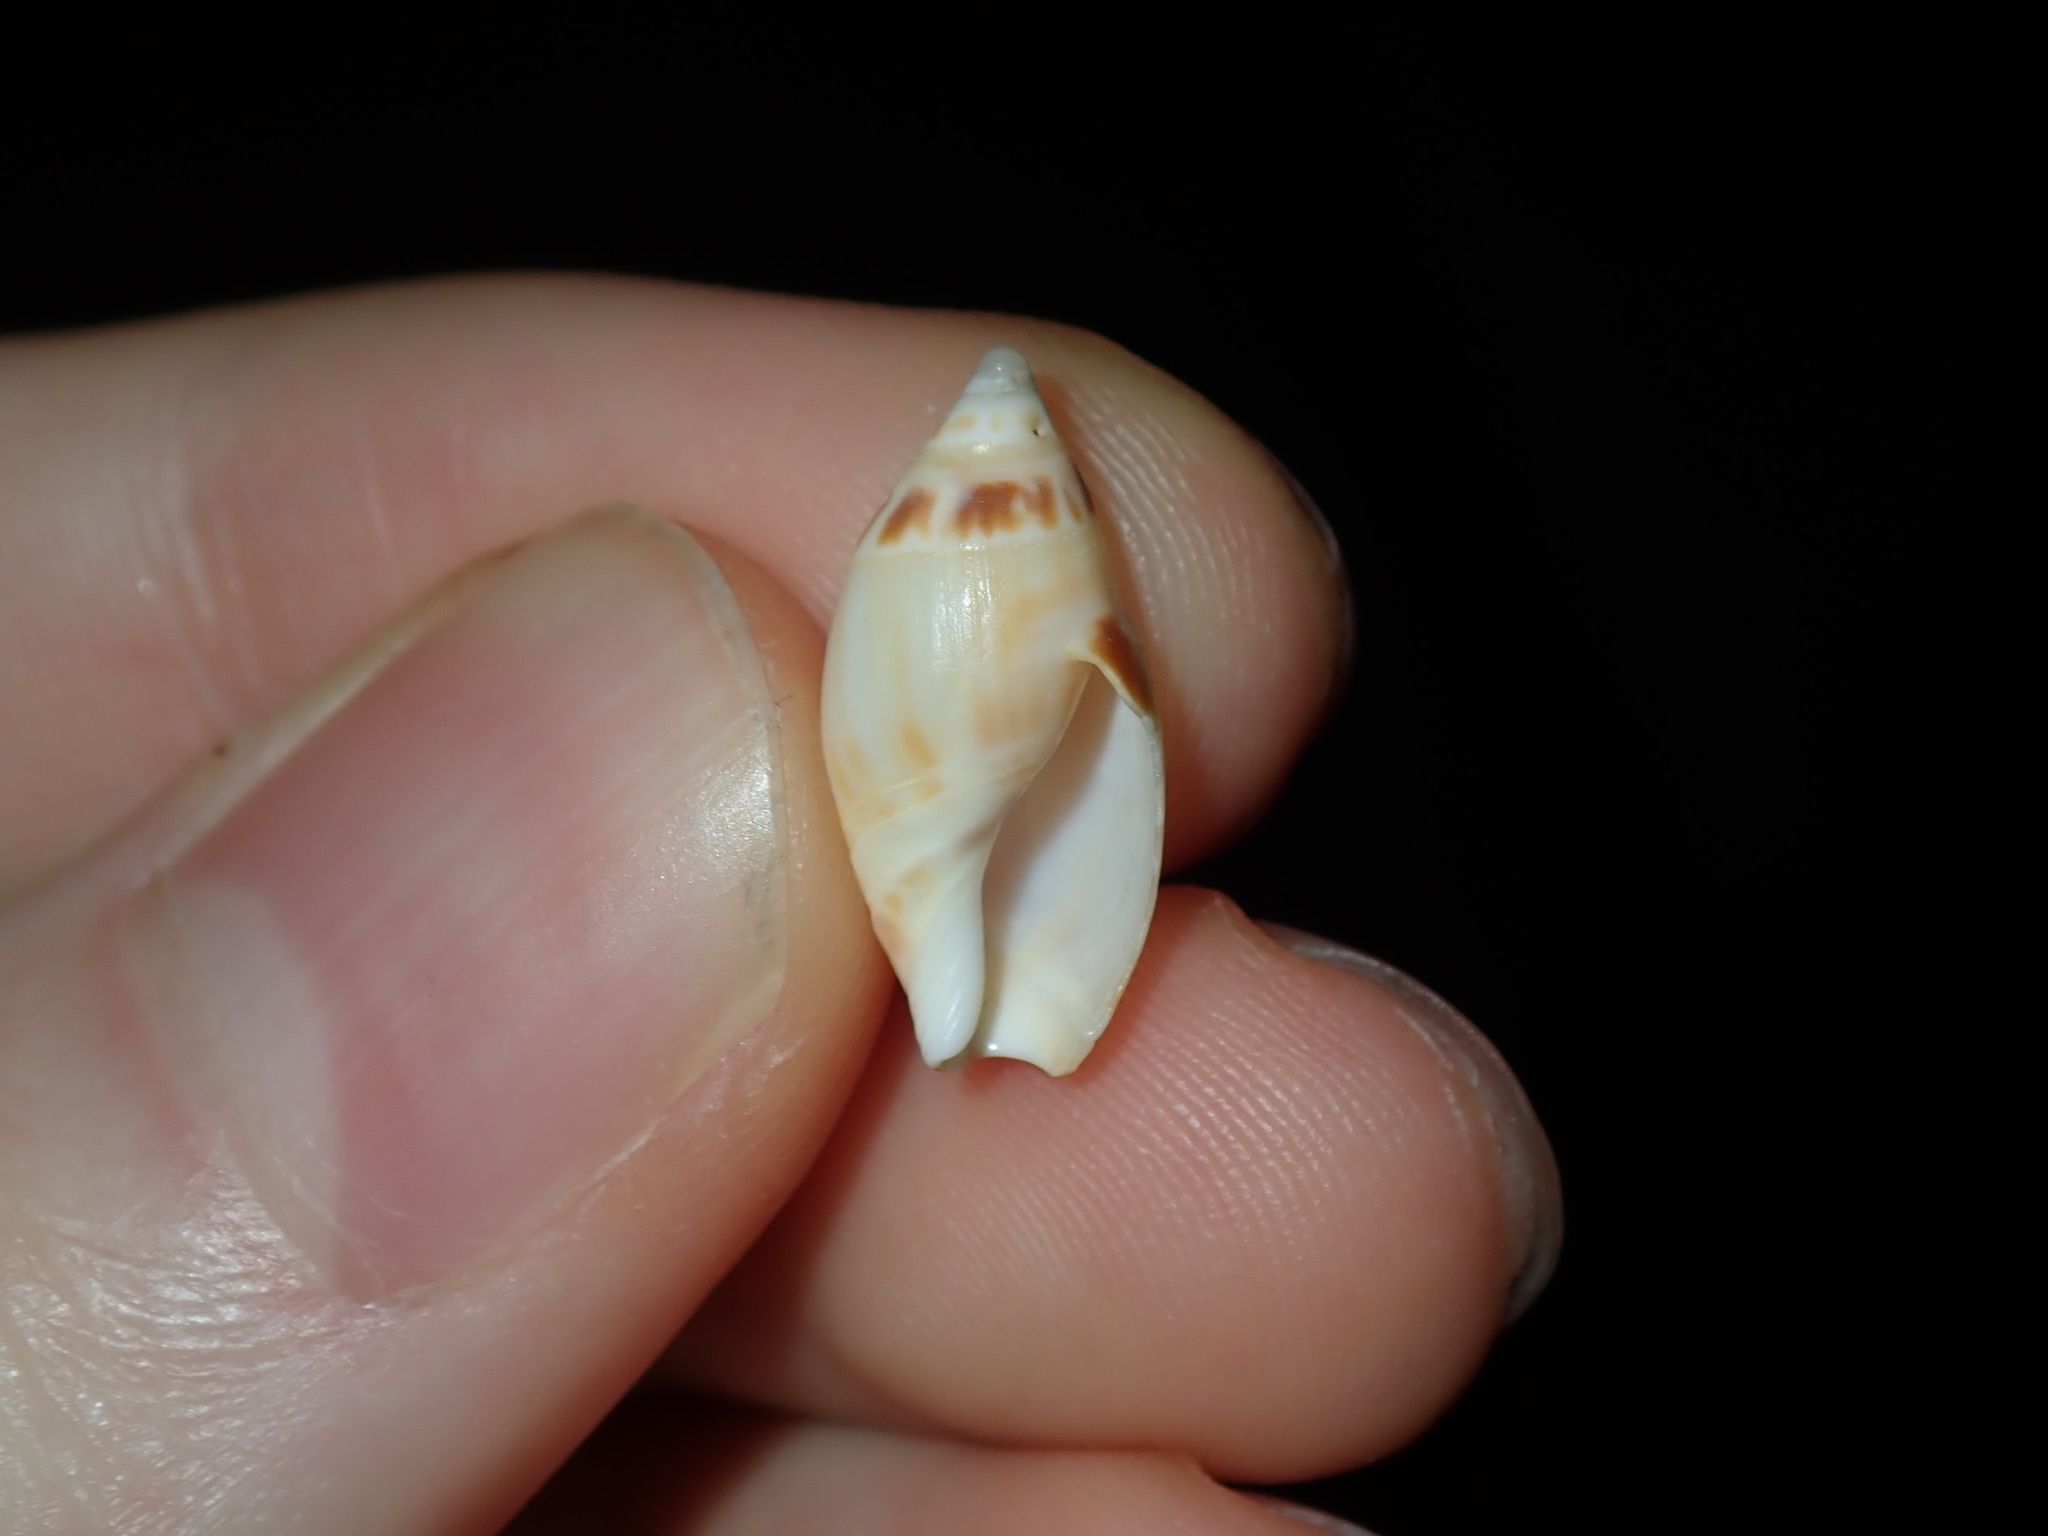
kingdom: Animalia
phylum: Mollusca
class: Gastropoda
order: Neogastropoda
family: Ancillariidae
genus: Amalda
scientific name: Amalda marginata
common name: Margin ancilla
